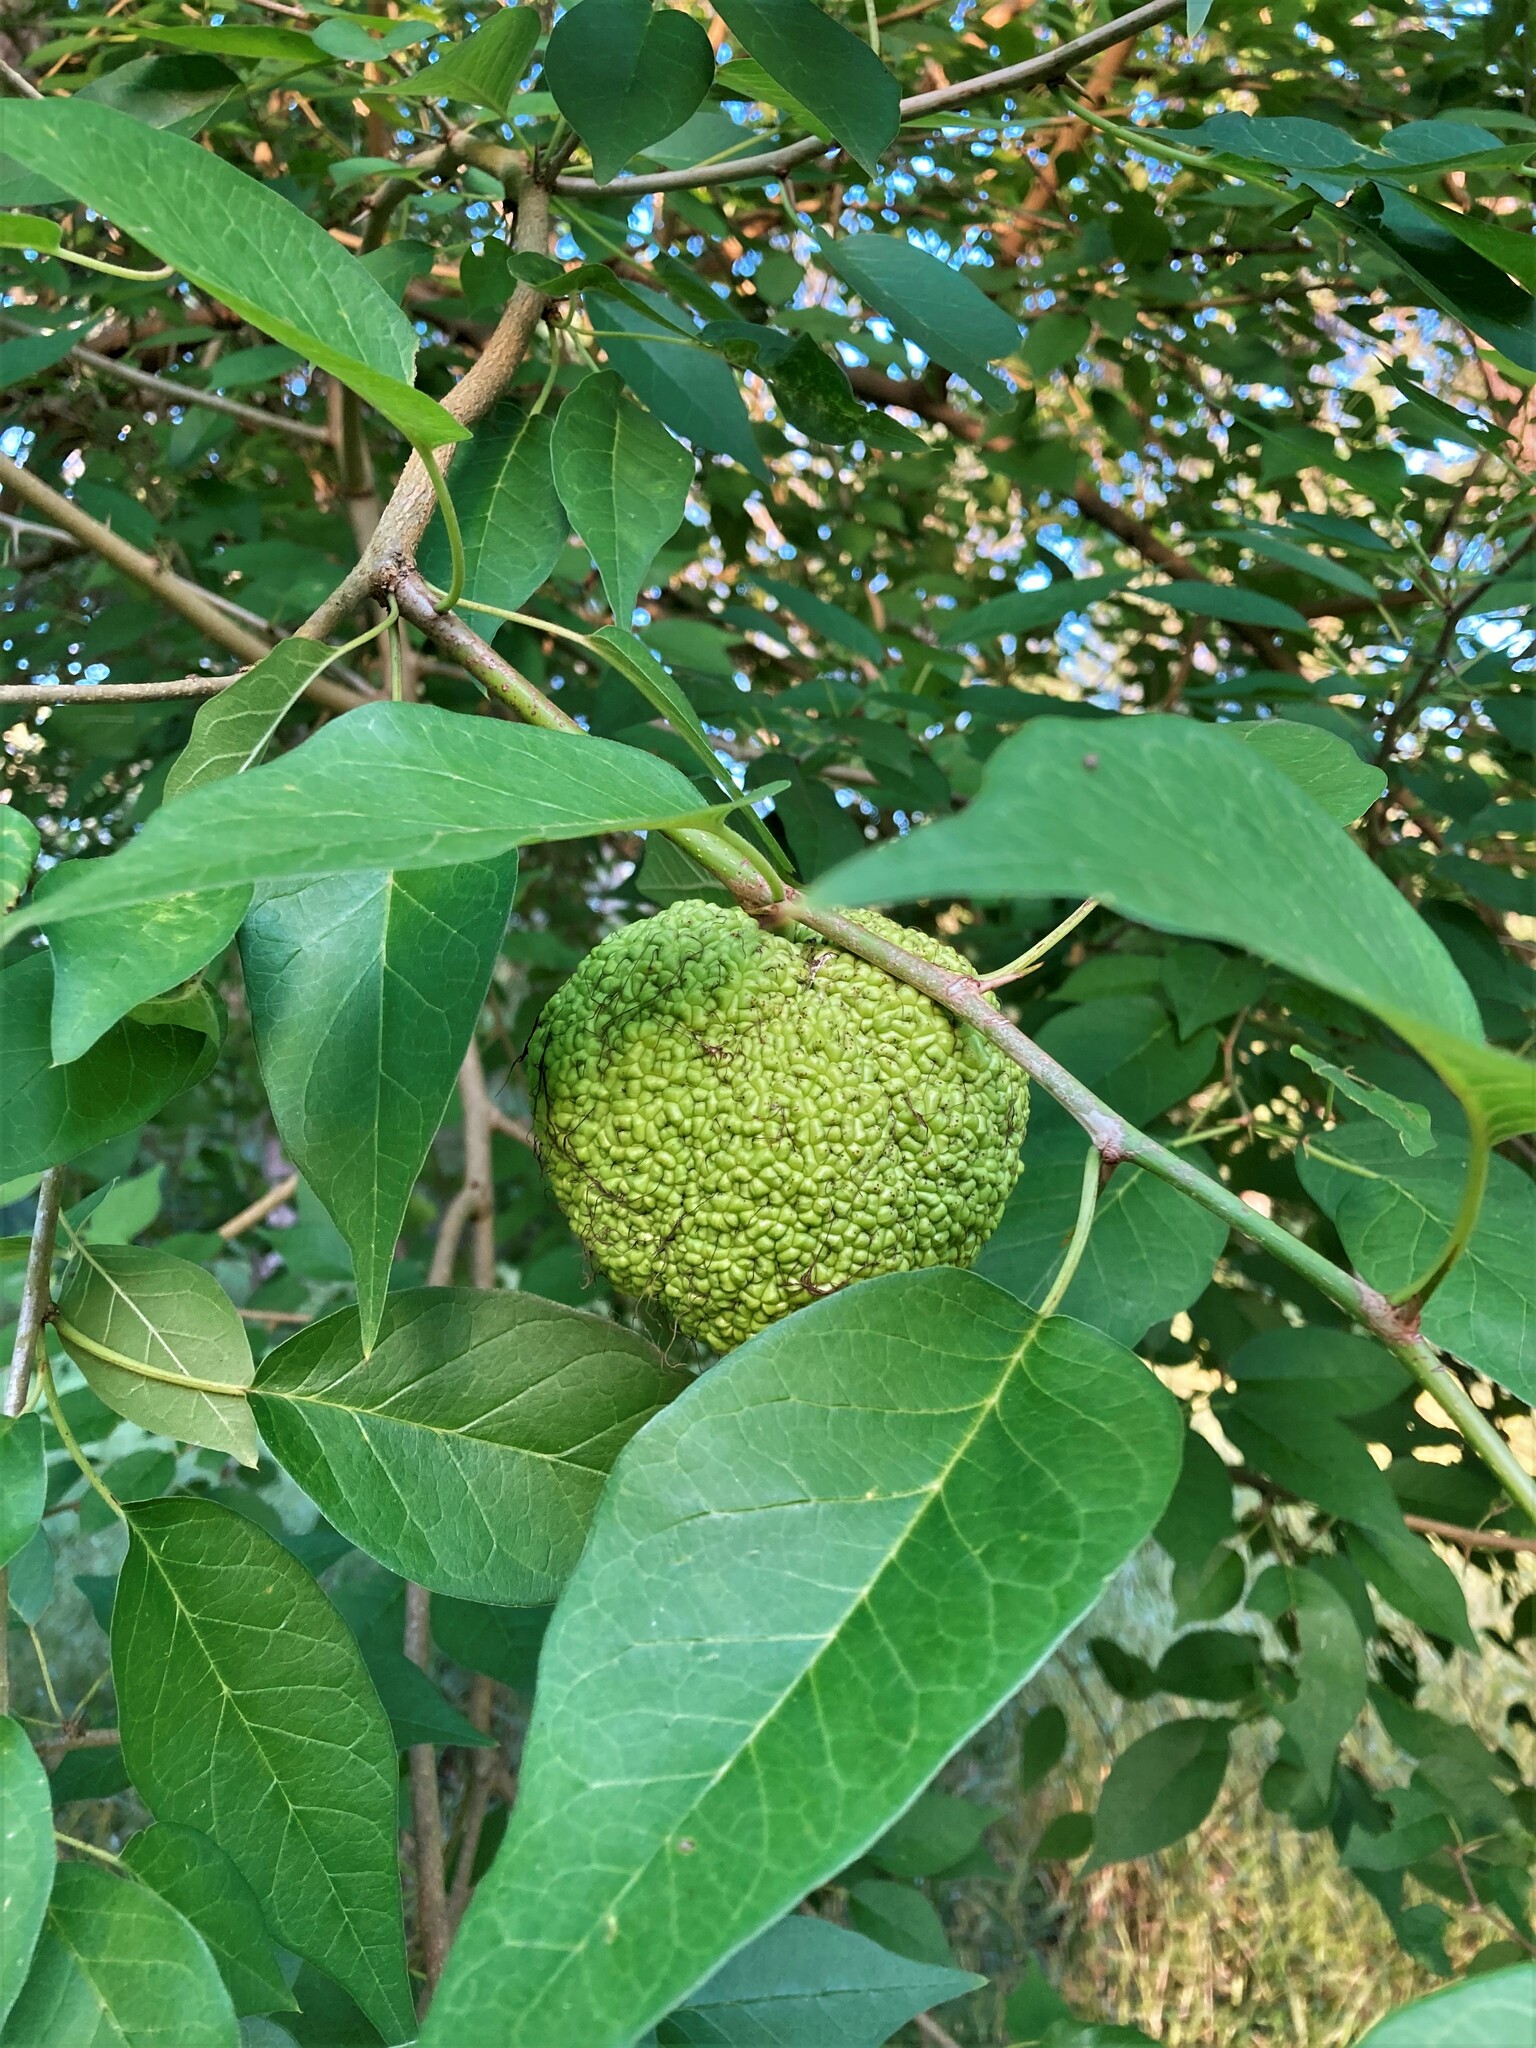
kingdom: Plantae
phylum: Tracheophyta
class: Magnoliopsida
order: Rosales
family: Moraceae
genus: Maclura
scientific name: Maclura pomifera
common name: Osage-orange
